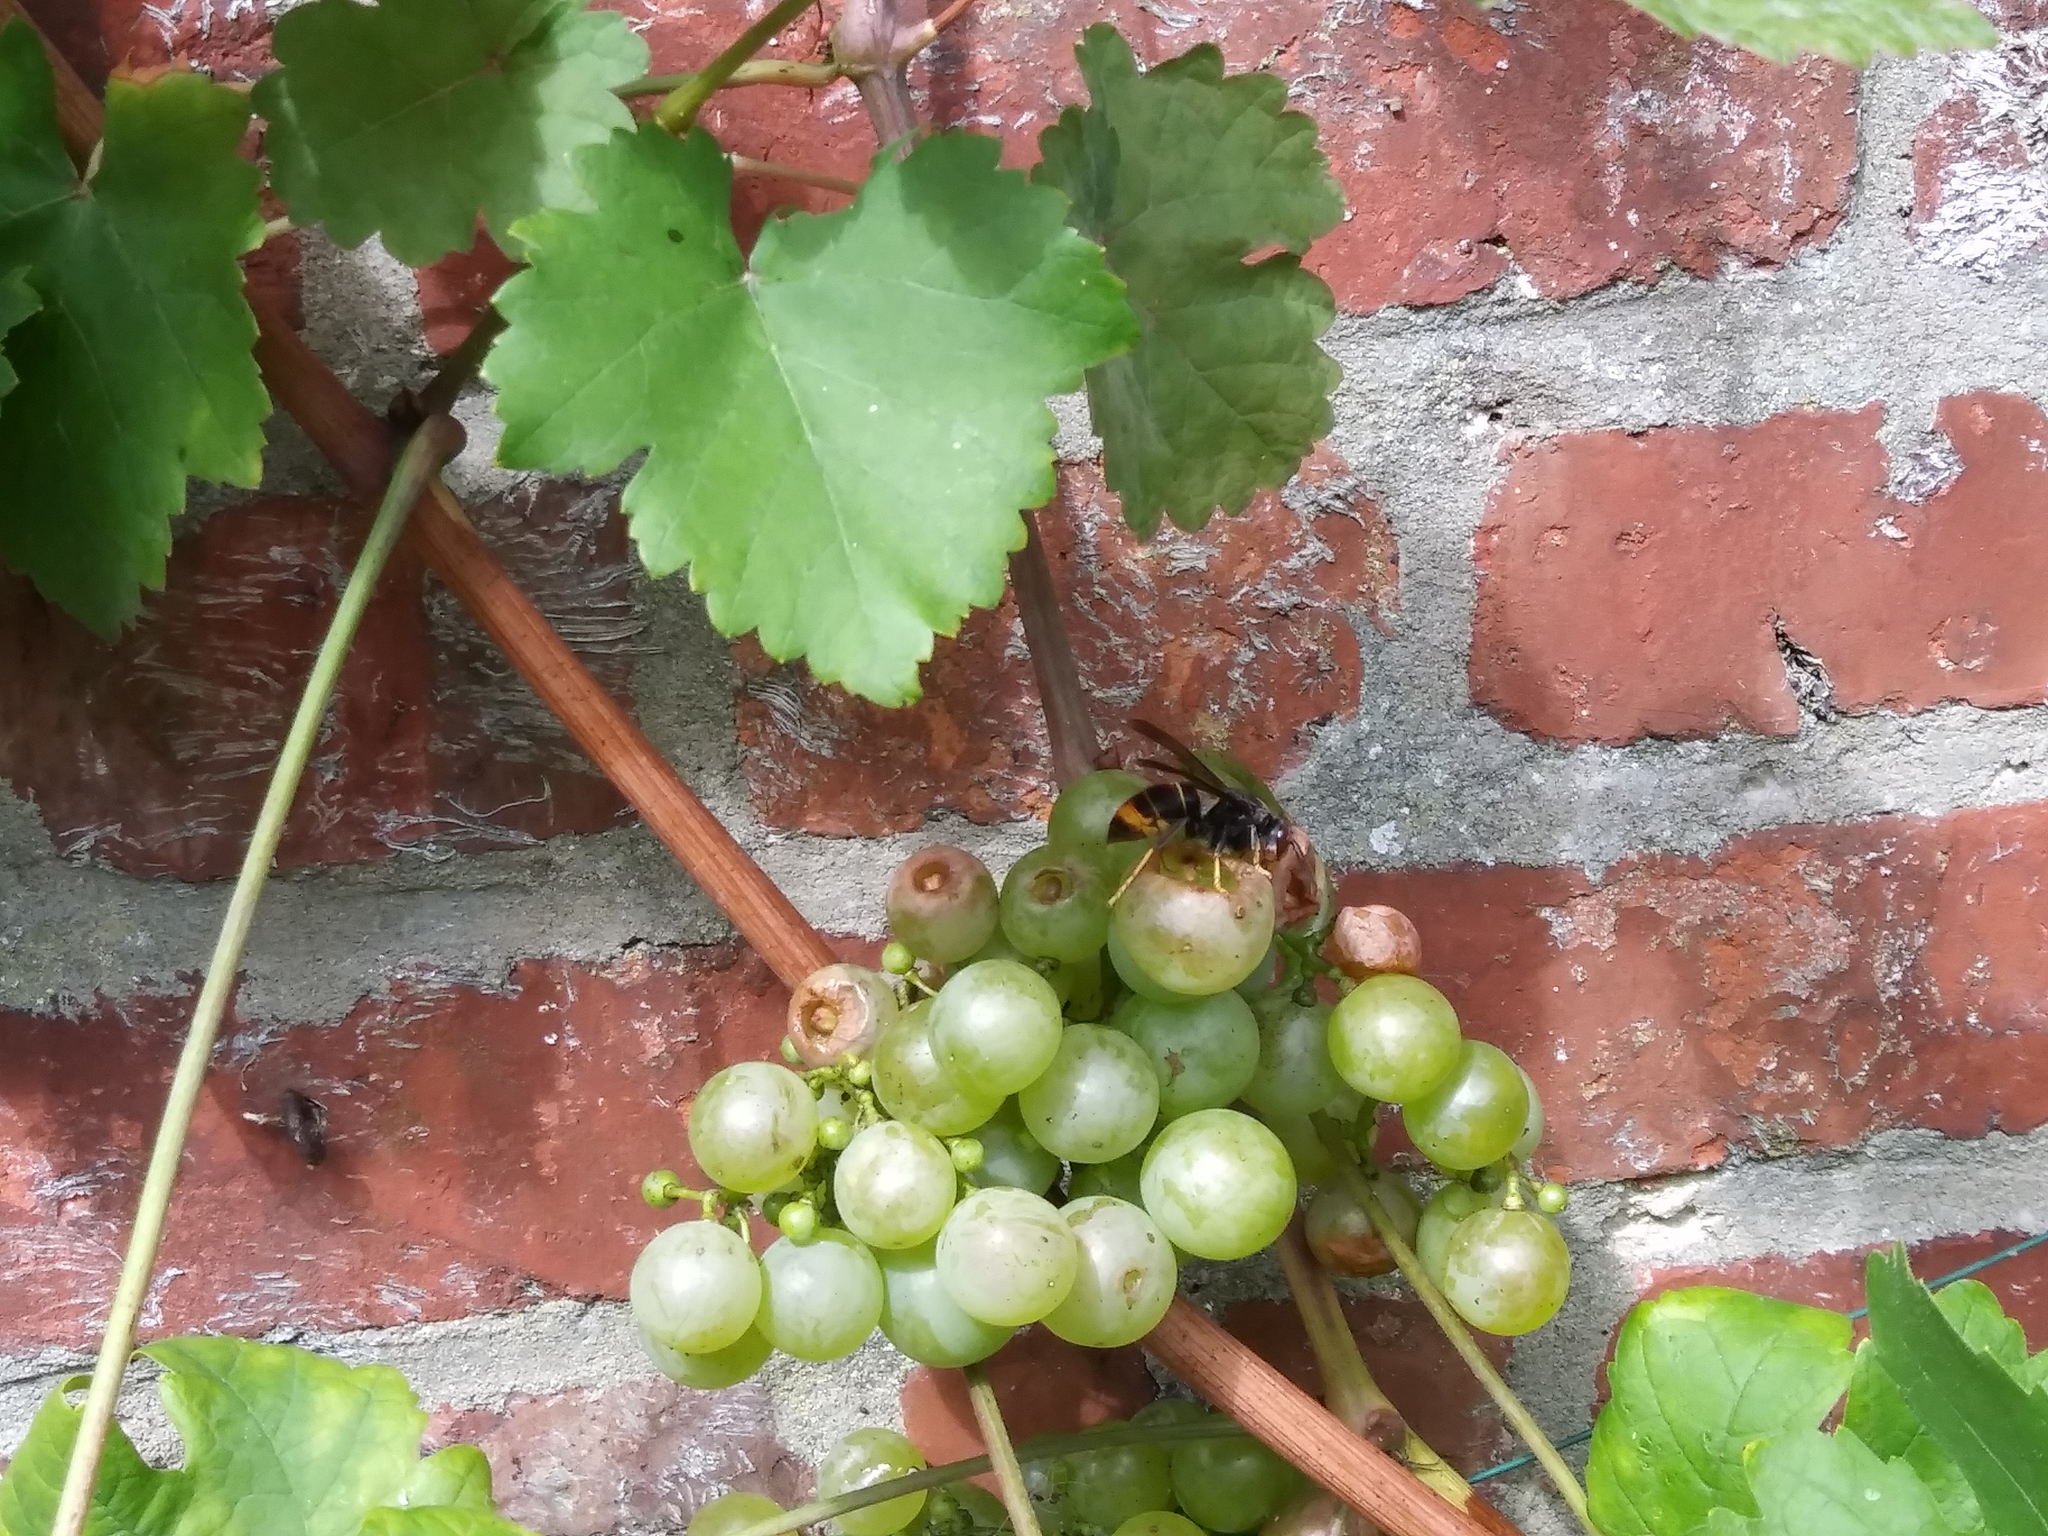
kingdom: Animalia
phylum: Arthropoda
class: Insecta
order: Hymenoptera
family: Vespidae
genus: Vespa
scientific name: Vespa velutina
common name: Asian hornet
